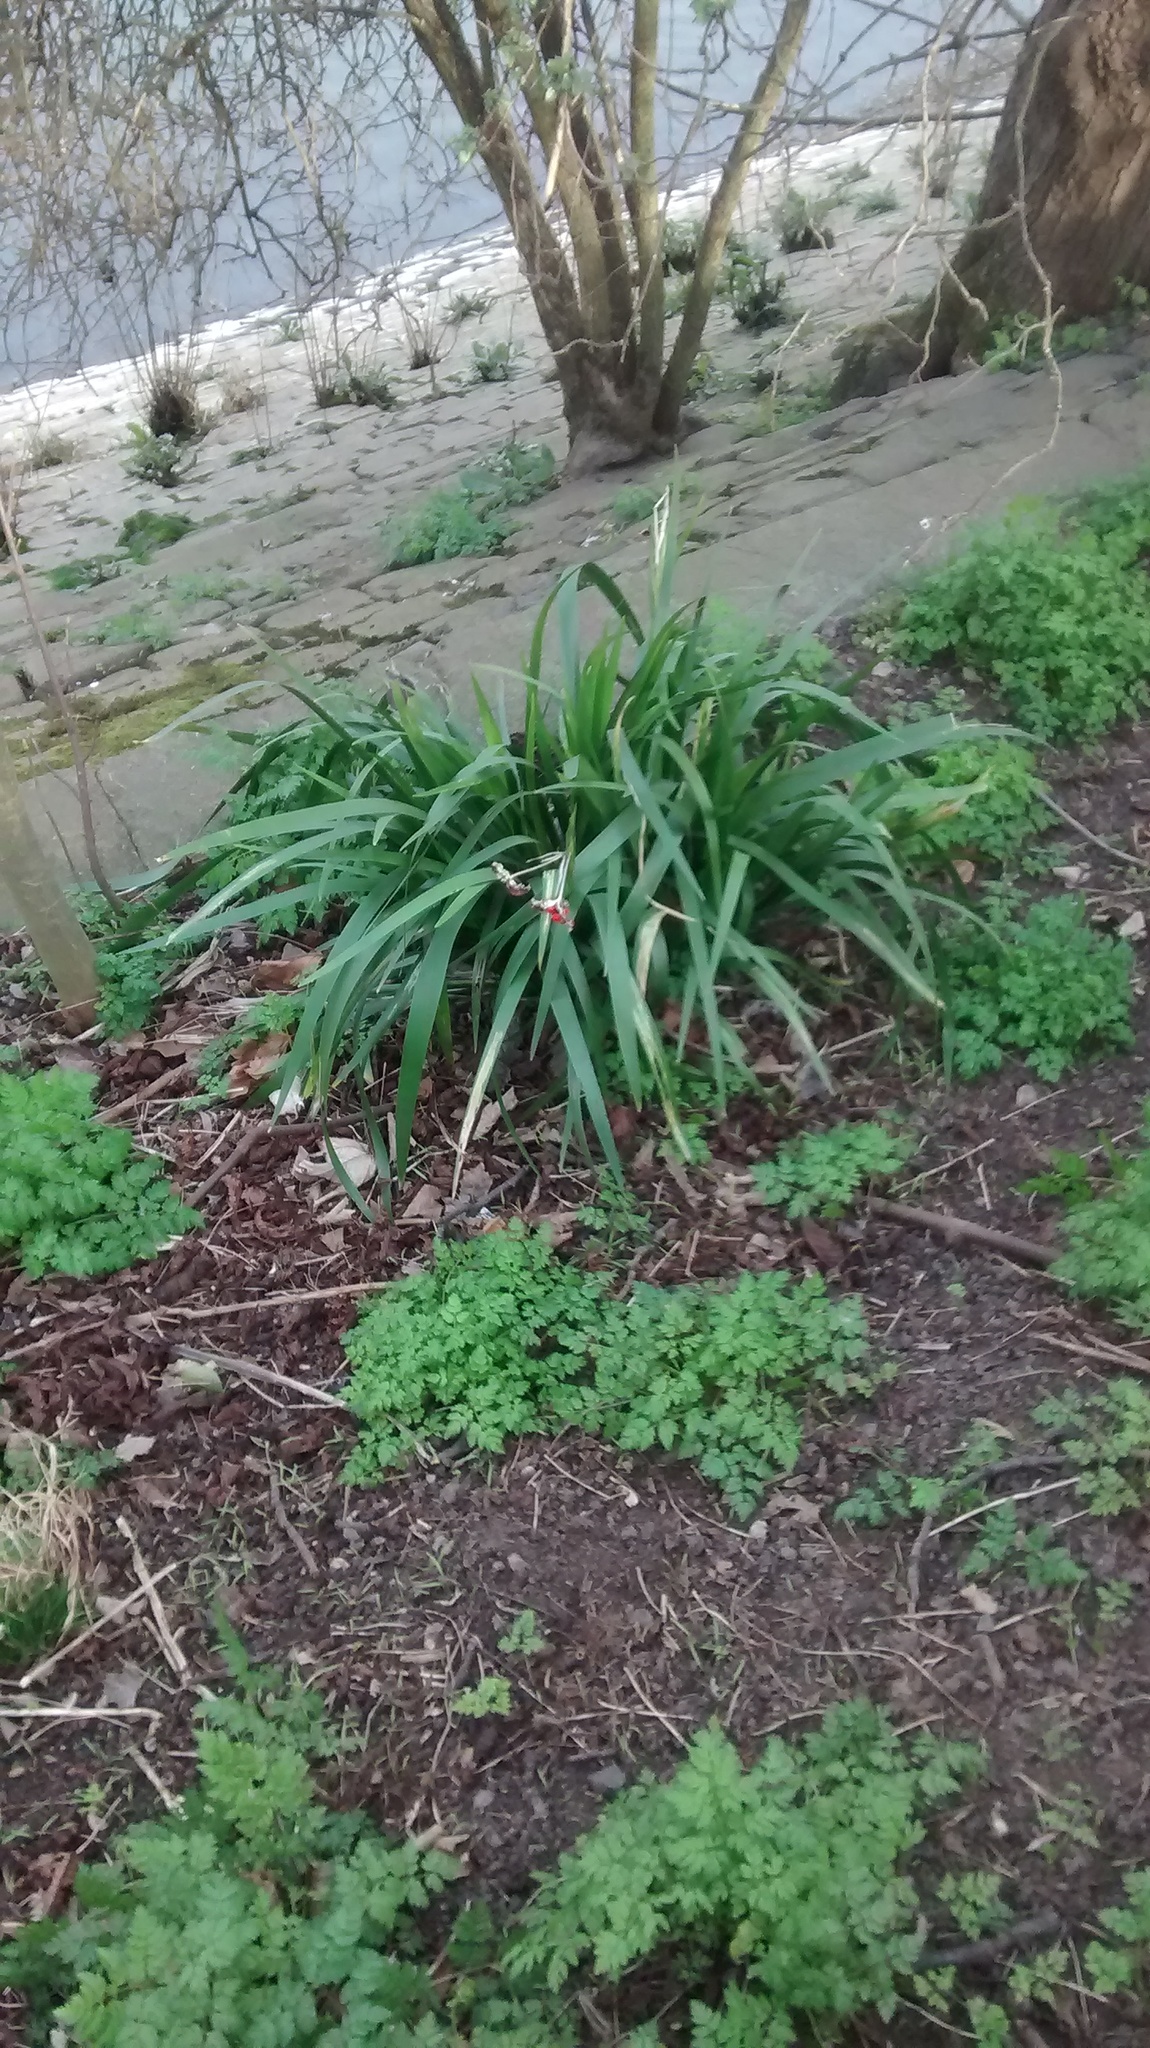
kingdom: Plantae
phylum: Tracheophyta
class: Liliopsida
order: Asparagales
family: Iridaceae
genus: Iris
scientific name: Iris foetidissima
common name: Stinking iris
